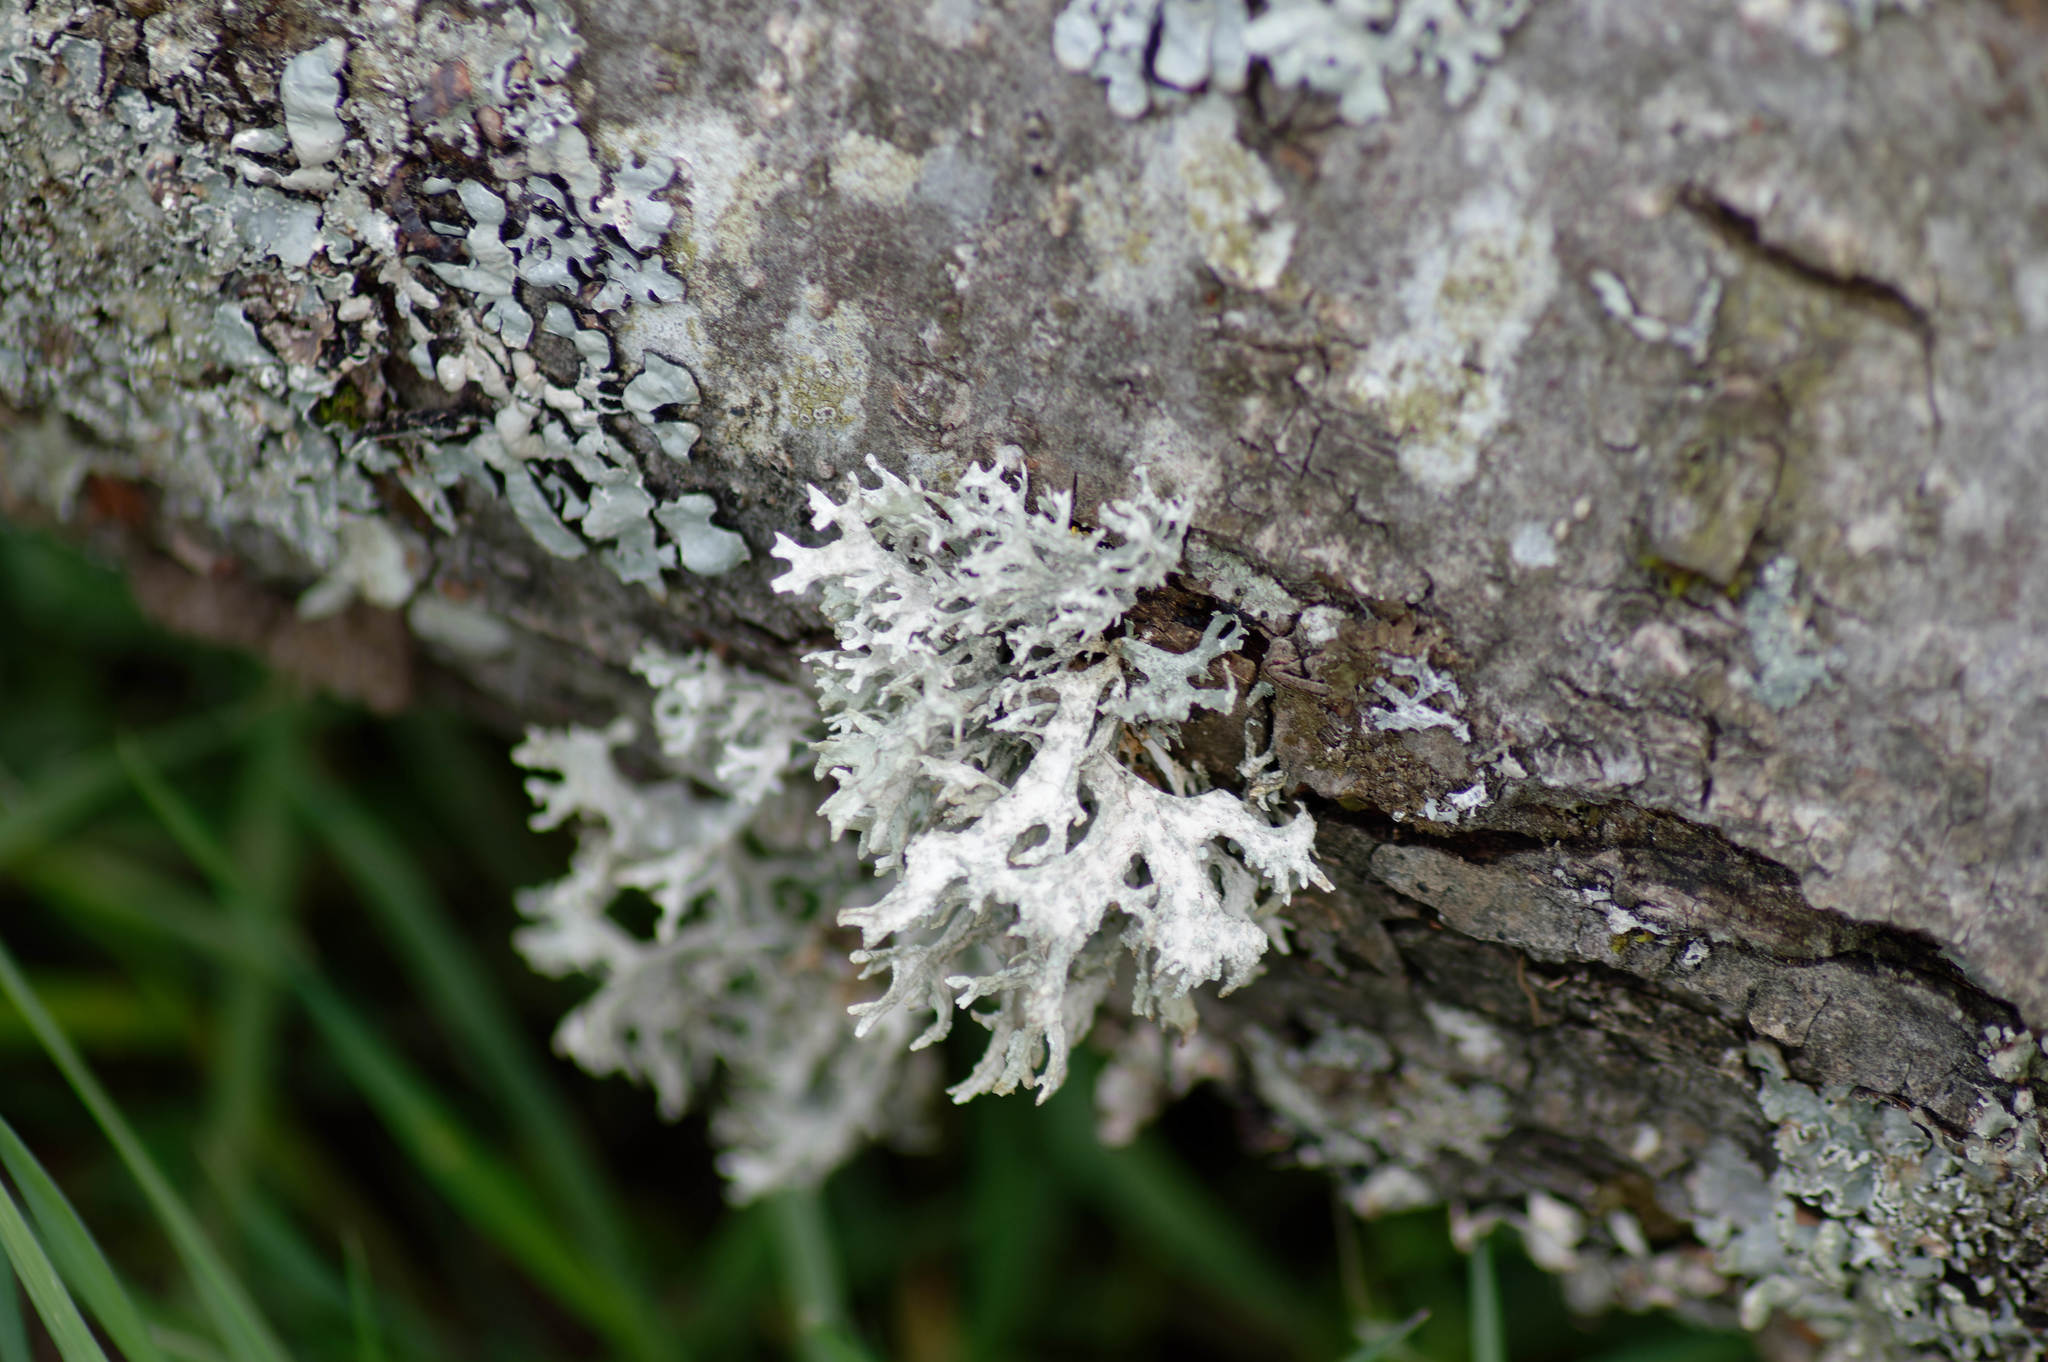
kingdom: Fungi
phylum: Ascomycota
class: Lecanoromycetes
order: Lecanorales
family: Parmeliaceae
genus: Evernia
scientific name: Evernia prunastri
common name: Oak moss
